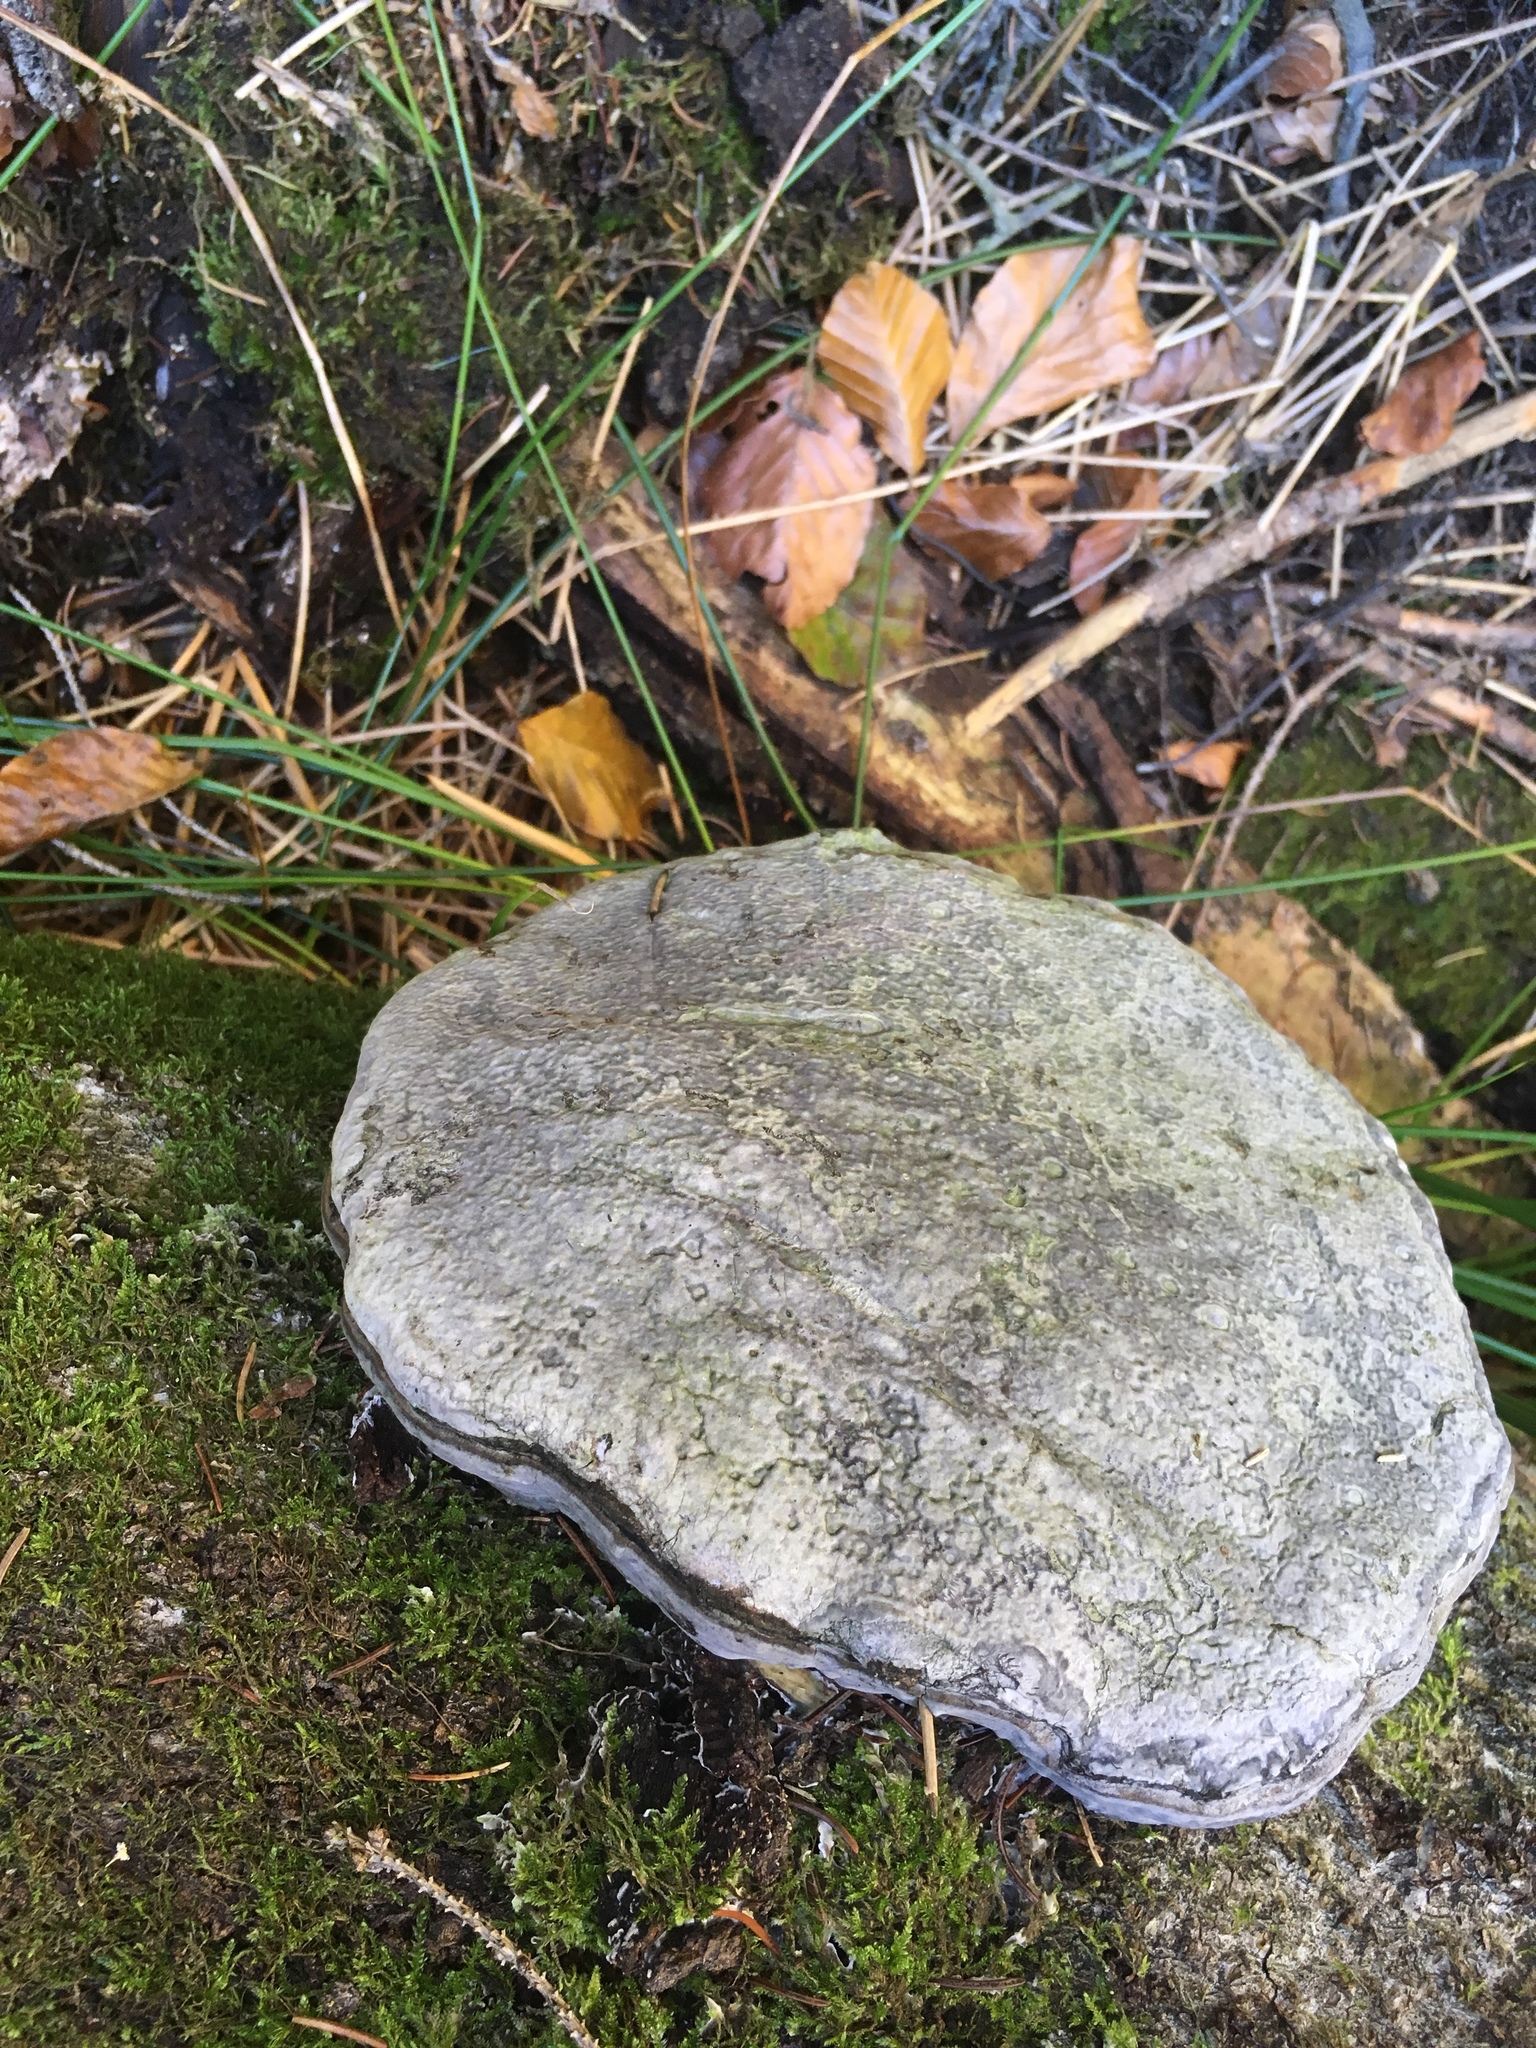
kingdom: Fungi
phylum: Basidiomycota
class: Agaricomycetes
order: Polyporales
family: Polyporaceae
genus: Fomes
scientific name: Fomes fomentarius
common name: Hoof fungus
